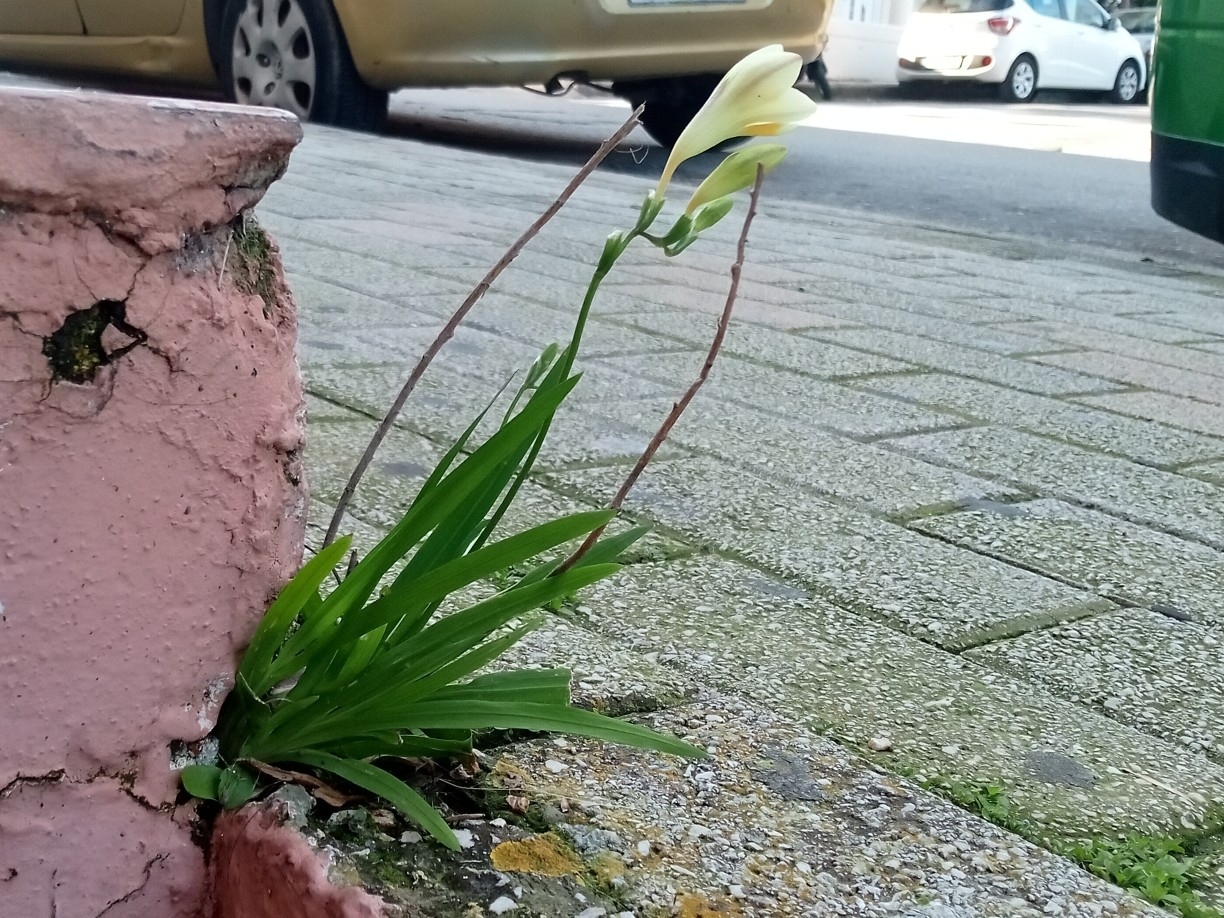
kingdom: Plantae
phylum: Tracheophyta
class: Liliopsida
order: Asparagales
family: Iridaceae
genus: Freesia
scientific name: Freesia leichtlinii
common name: Freesia
